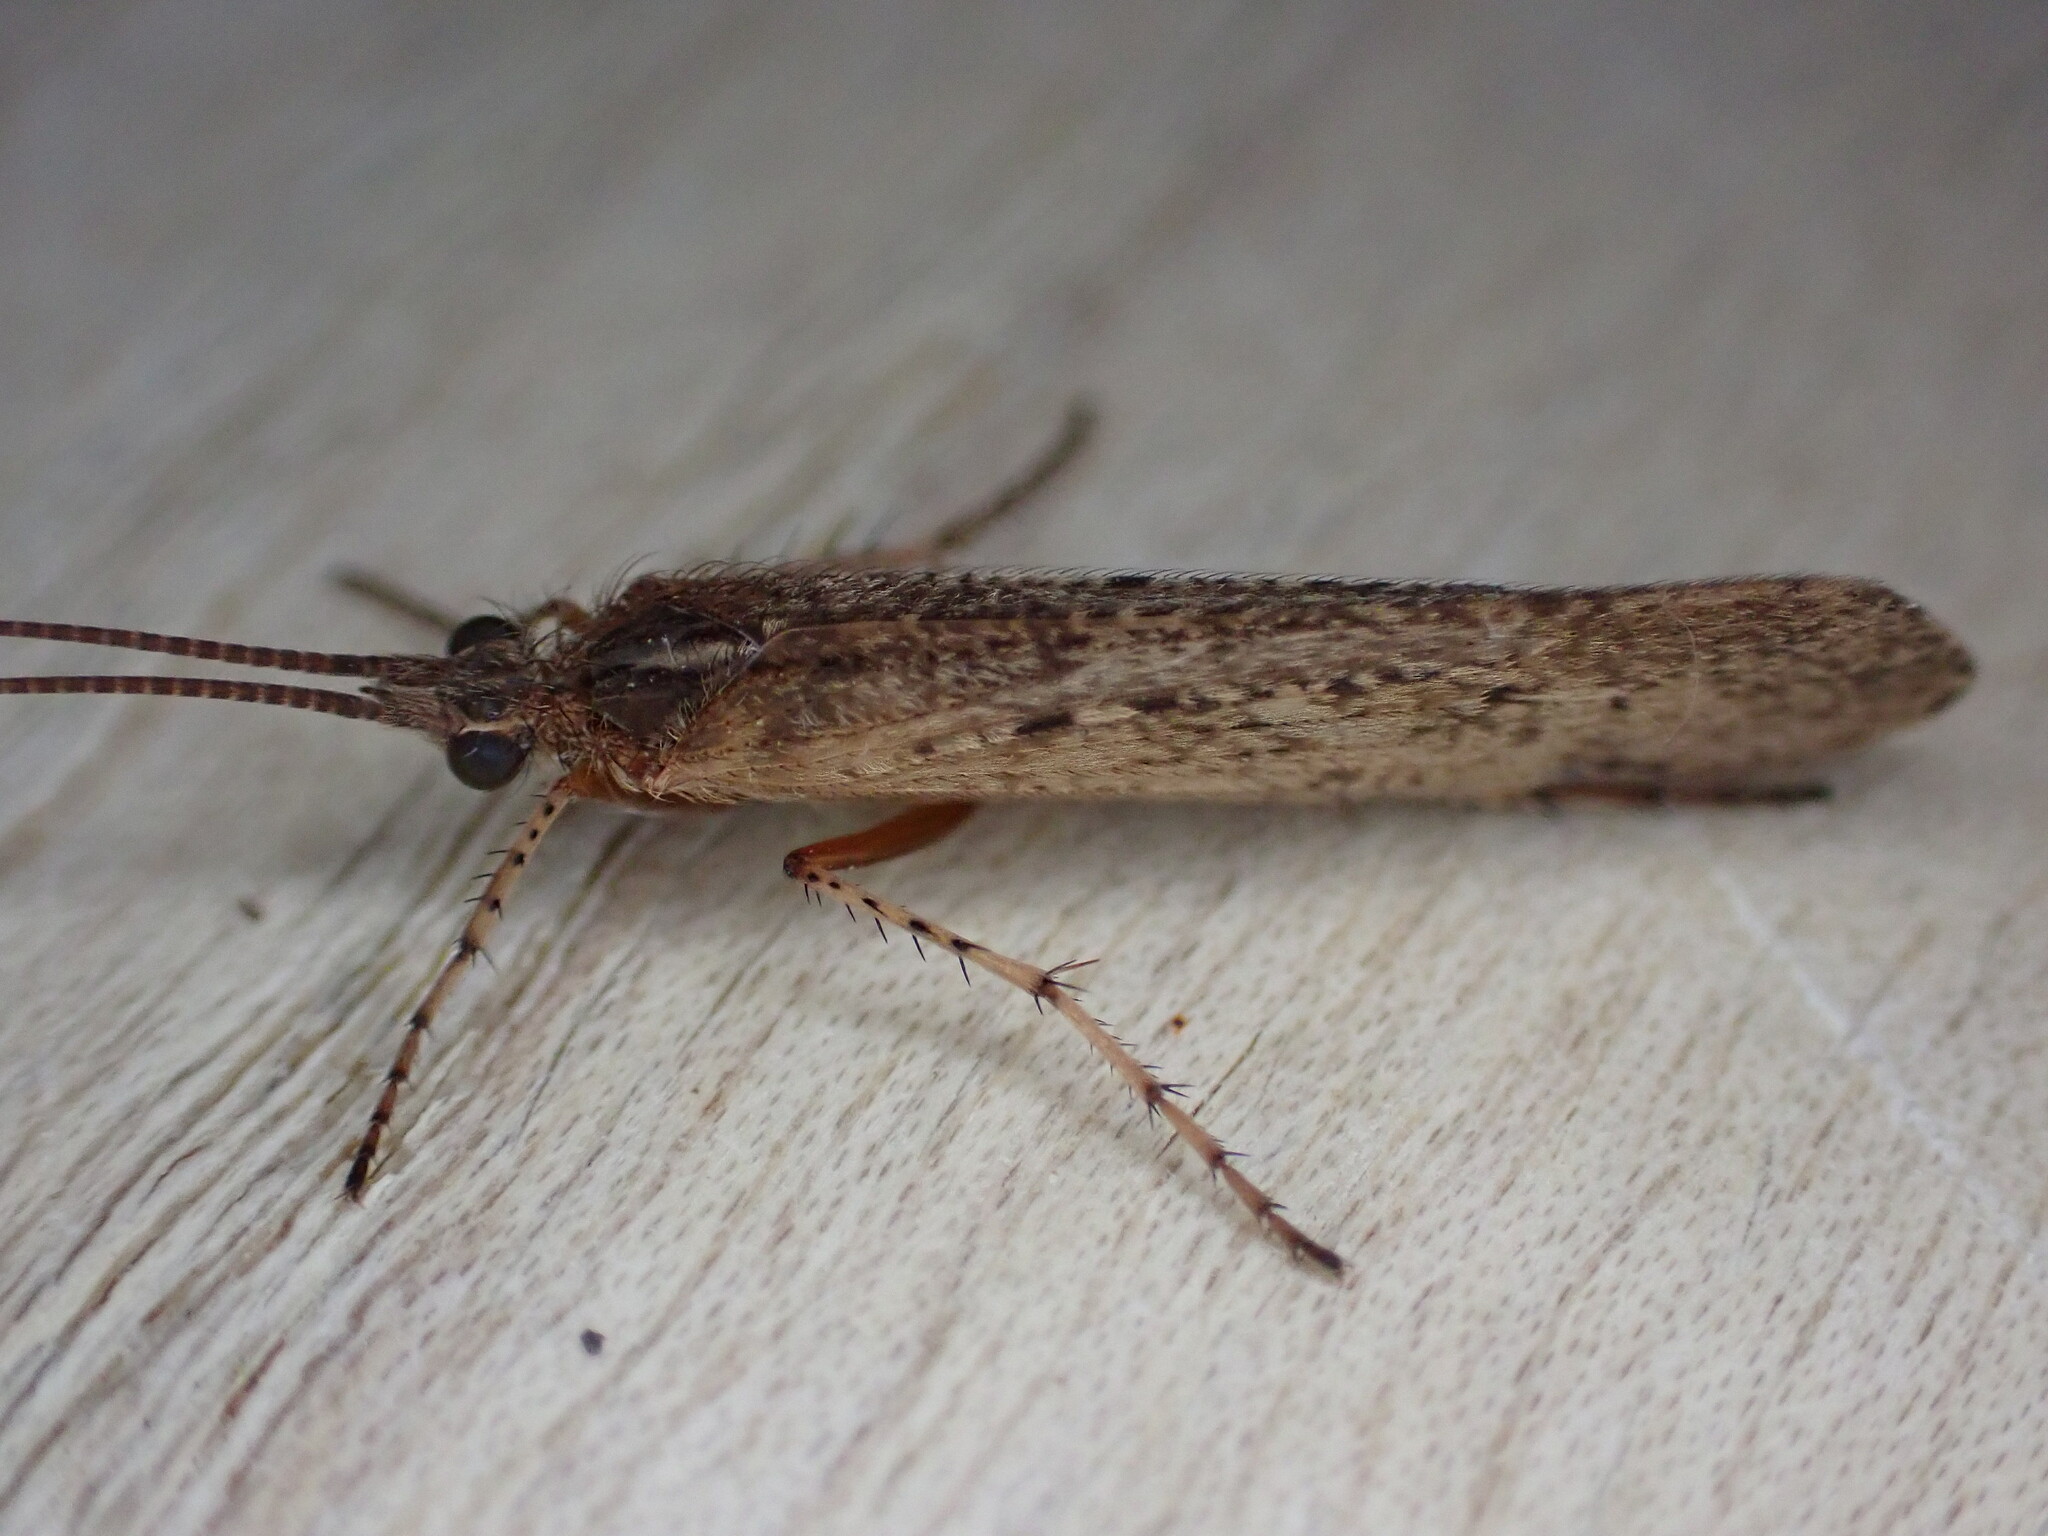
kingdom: Animalia
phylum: Arthropoda
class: Insecta
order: Trichoptera
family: Limnephilidae
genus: Limnephilus
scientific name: Limnephilus affinis
